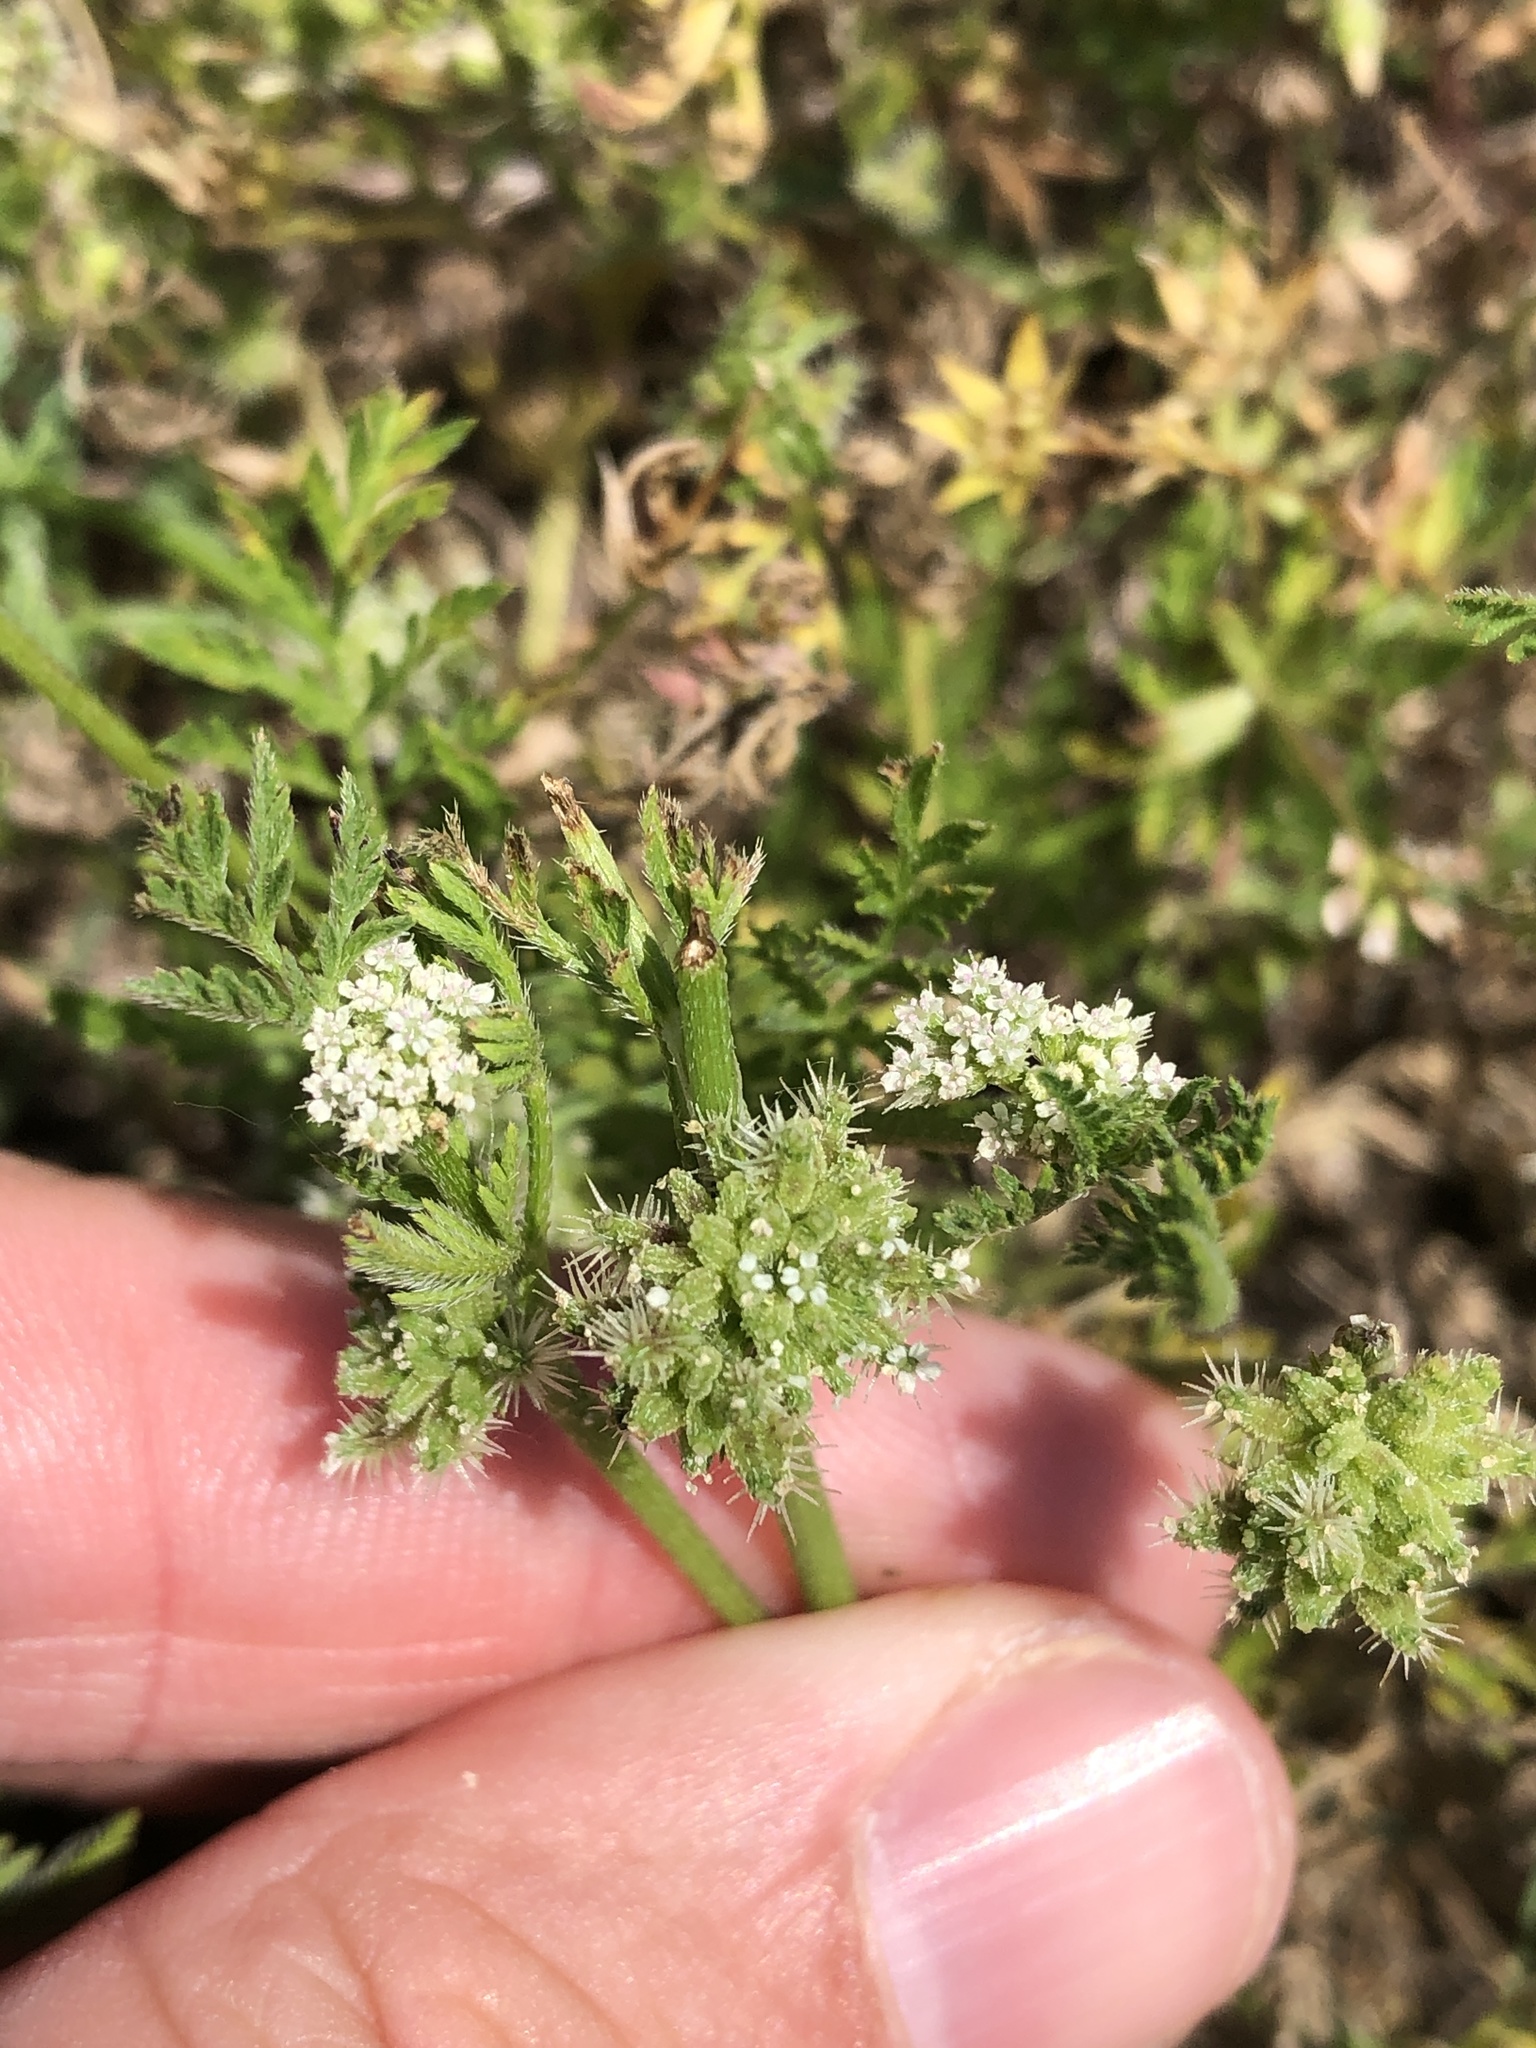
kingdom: Plantae
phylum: Tracheophyta
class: Magnoliopsida
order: Apiales
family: Apiaceae
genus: Torilis
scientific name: Torilis nodosa
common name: Knotted hedge-parsley
